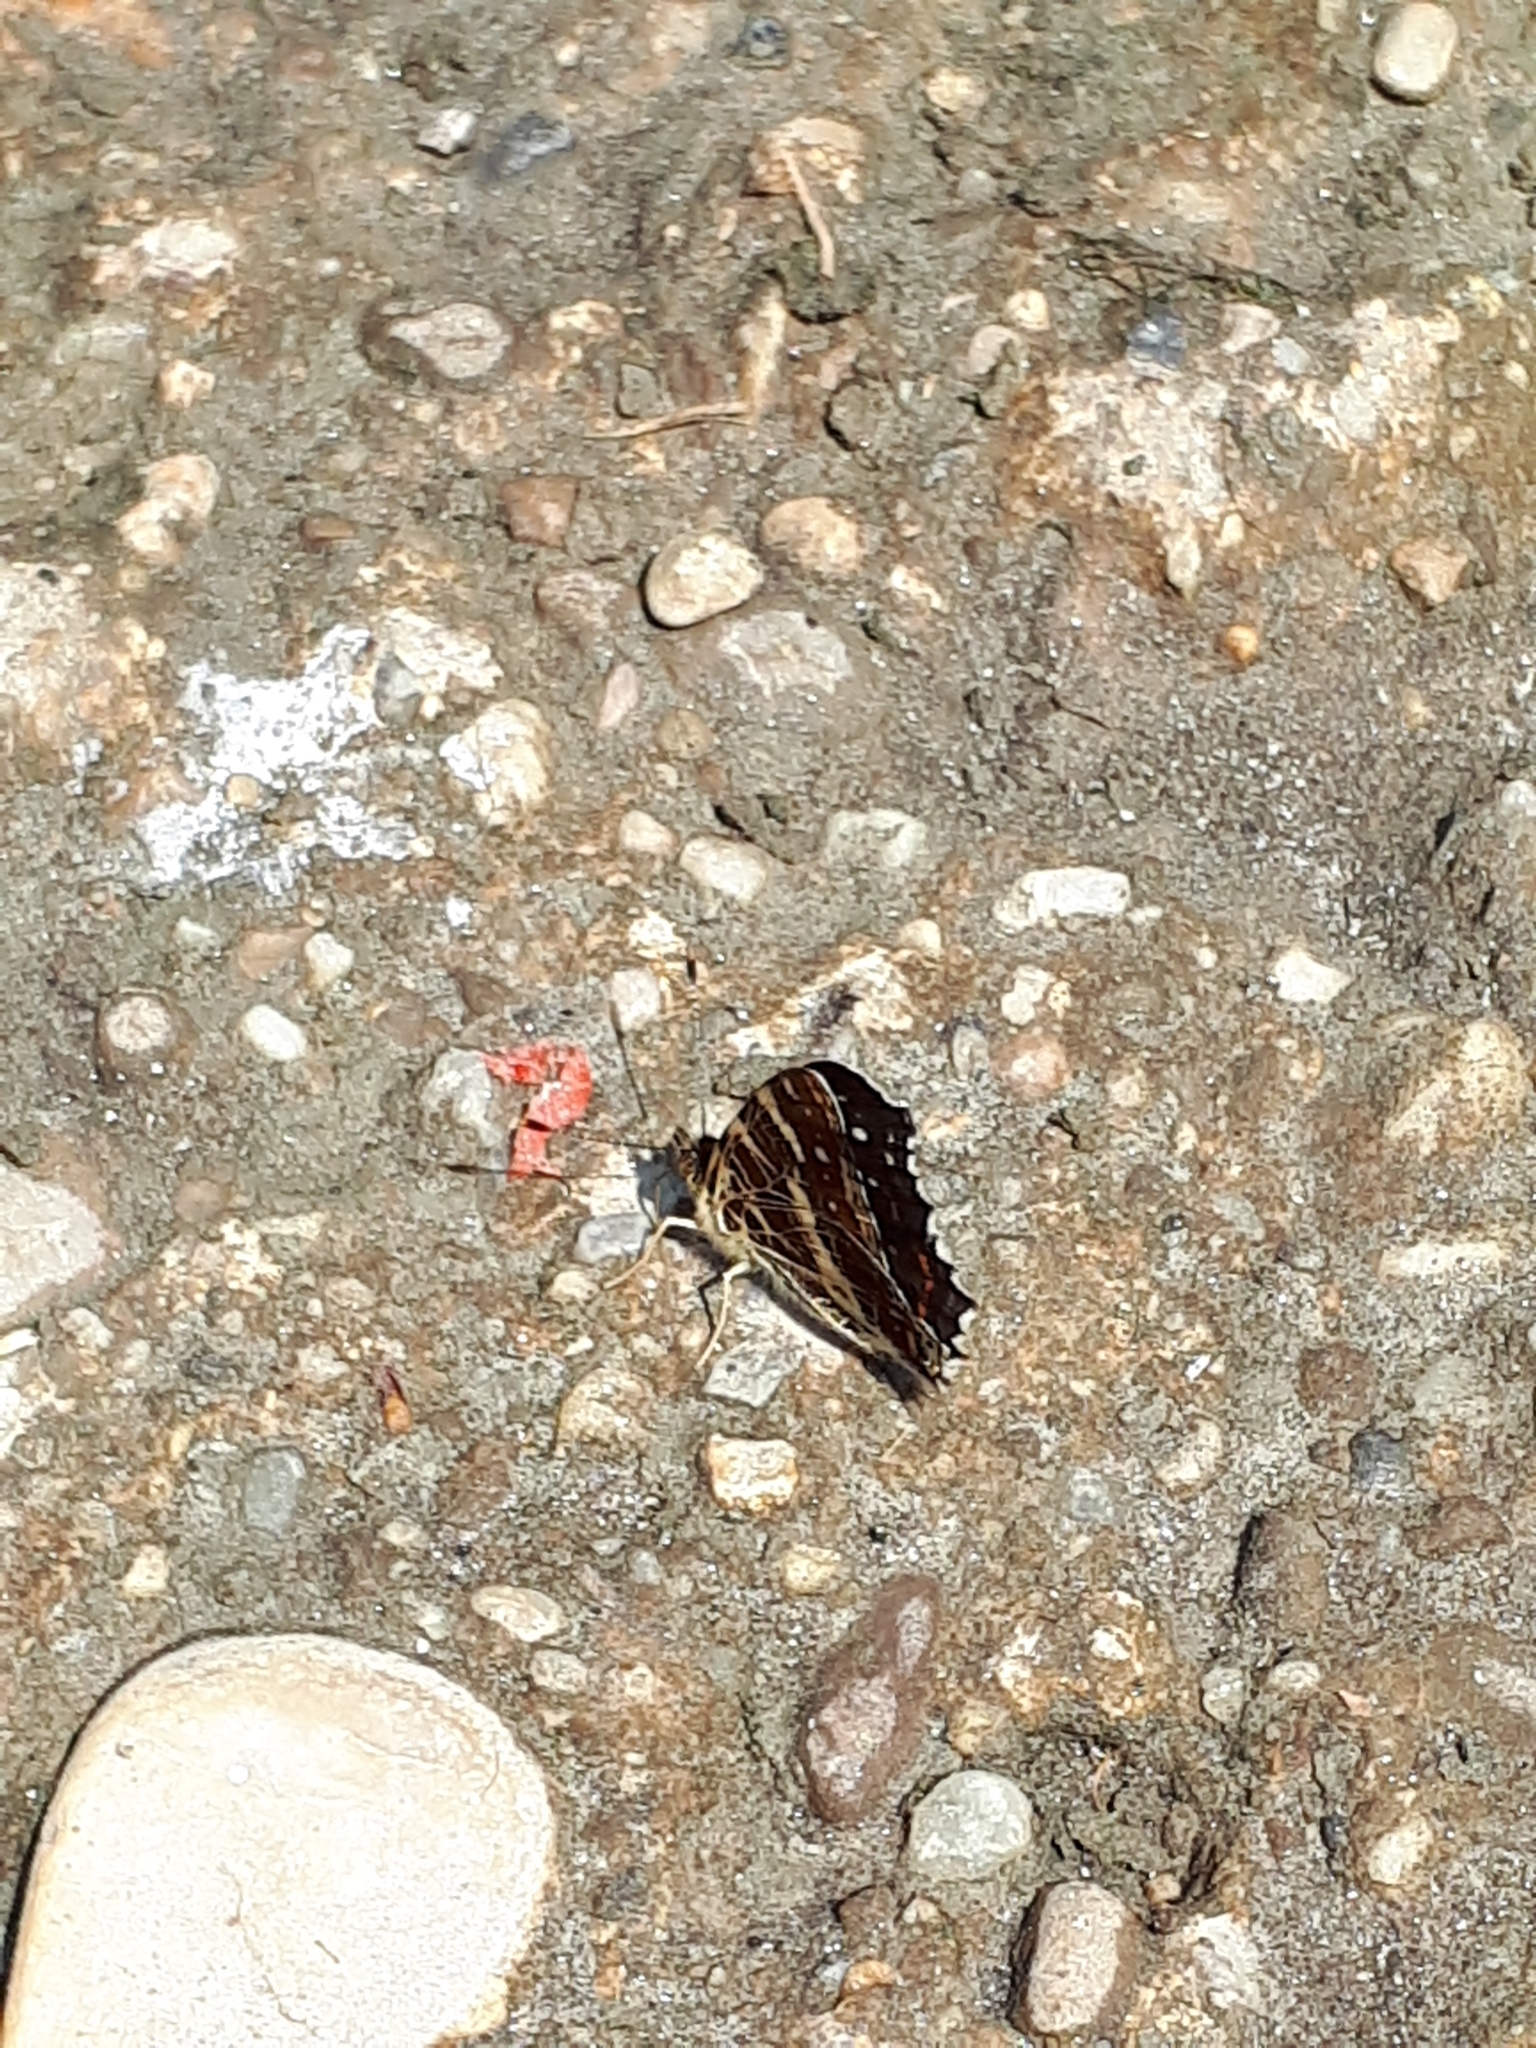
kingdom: Animalia
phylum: Arthropoda
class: Insecta
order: Lepidoptera
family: Nymphalidae
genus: Araschnia
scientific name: Araschnia levana
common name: Map butterfly
